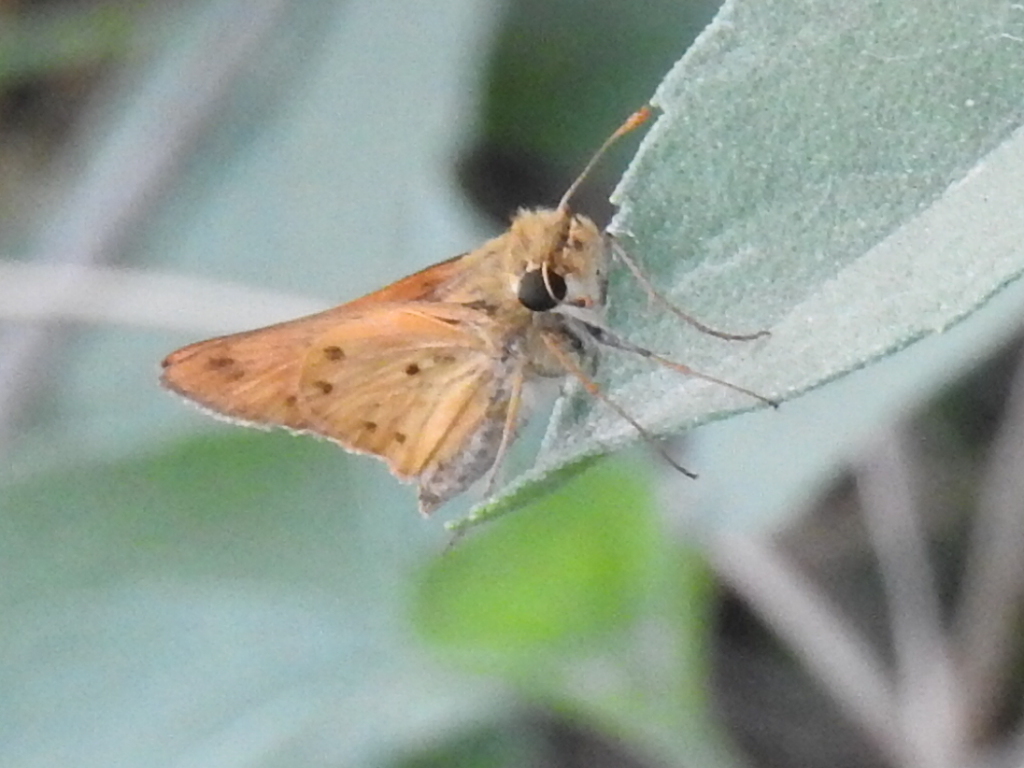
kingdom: Animalia
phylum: Arthropoda
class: Insecta
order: Lepidoptera
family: Hesperiidae
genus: Hylephila
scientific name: Hylephila phyleus
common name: Fiery skipper
